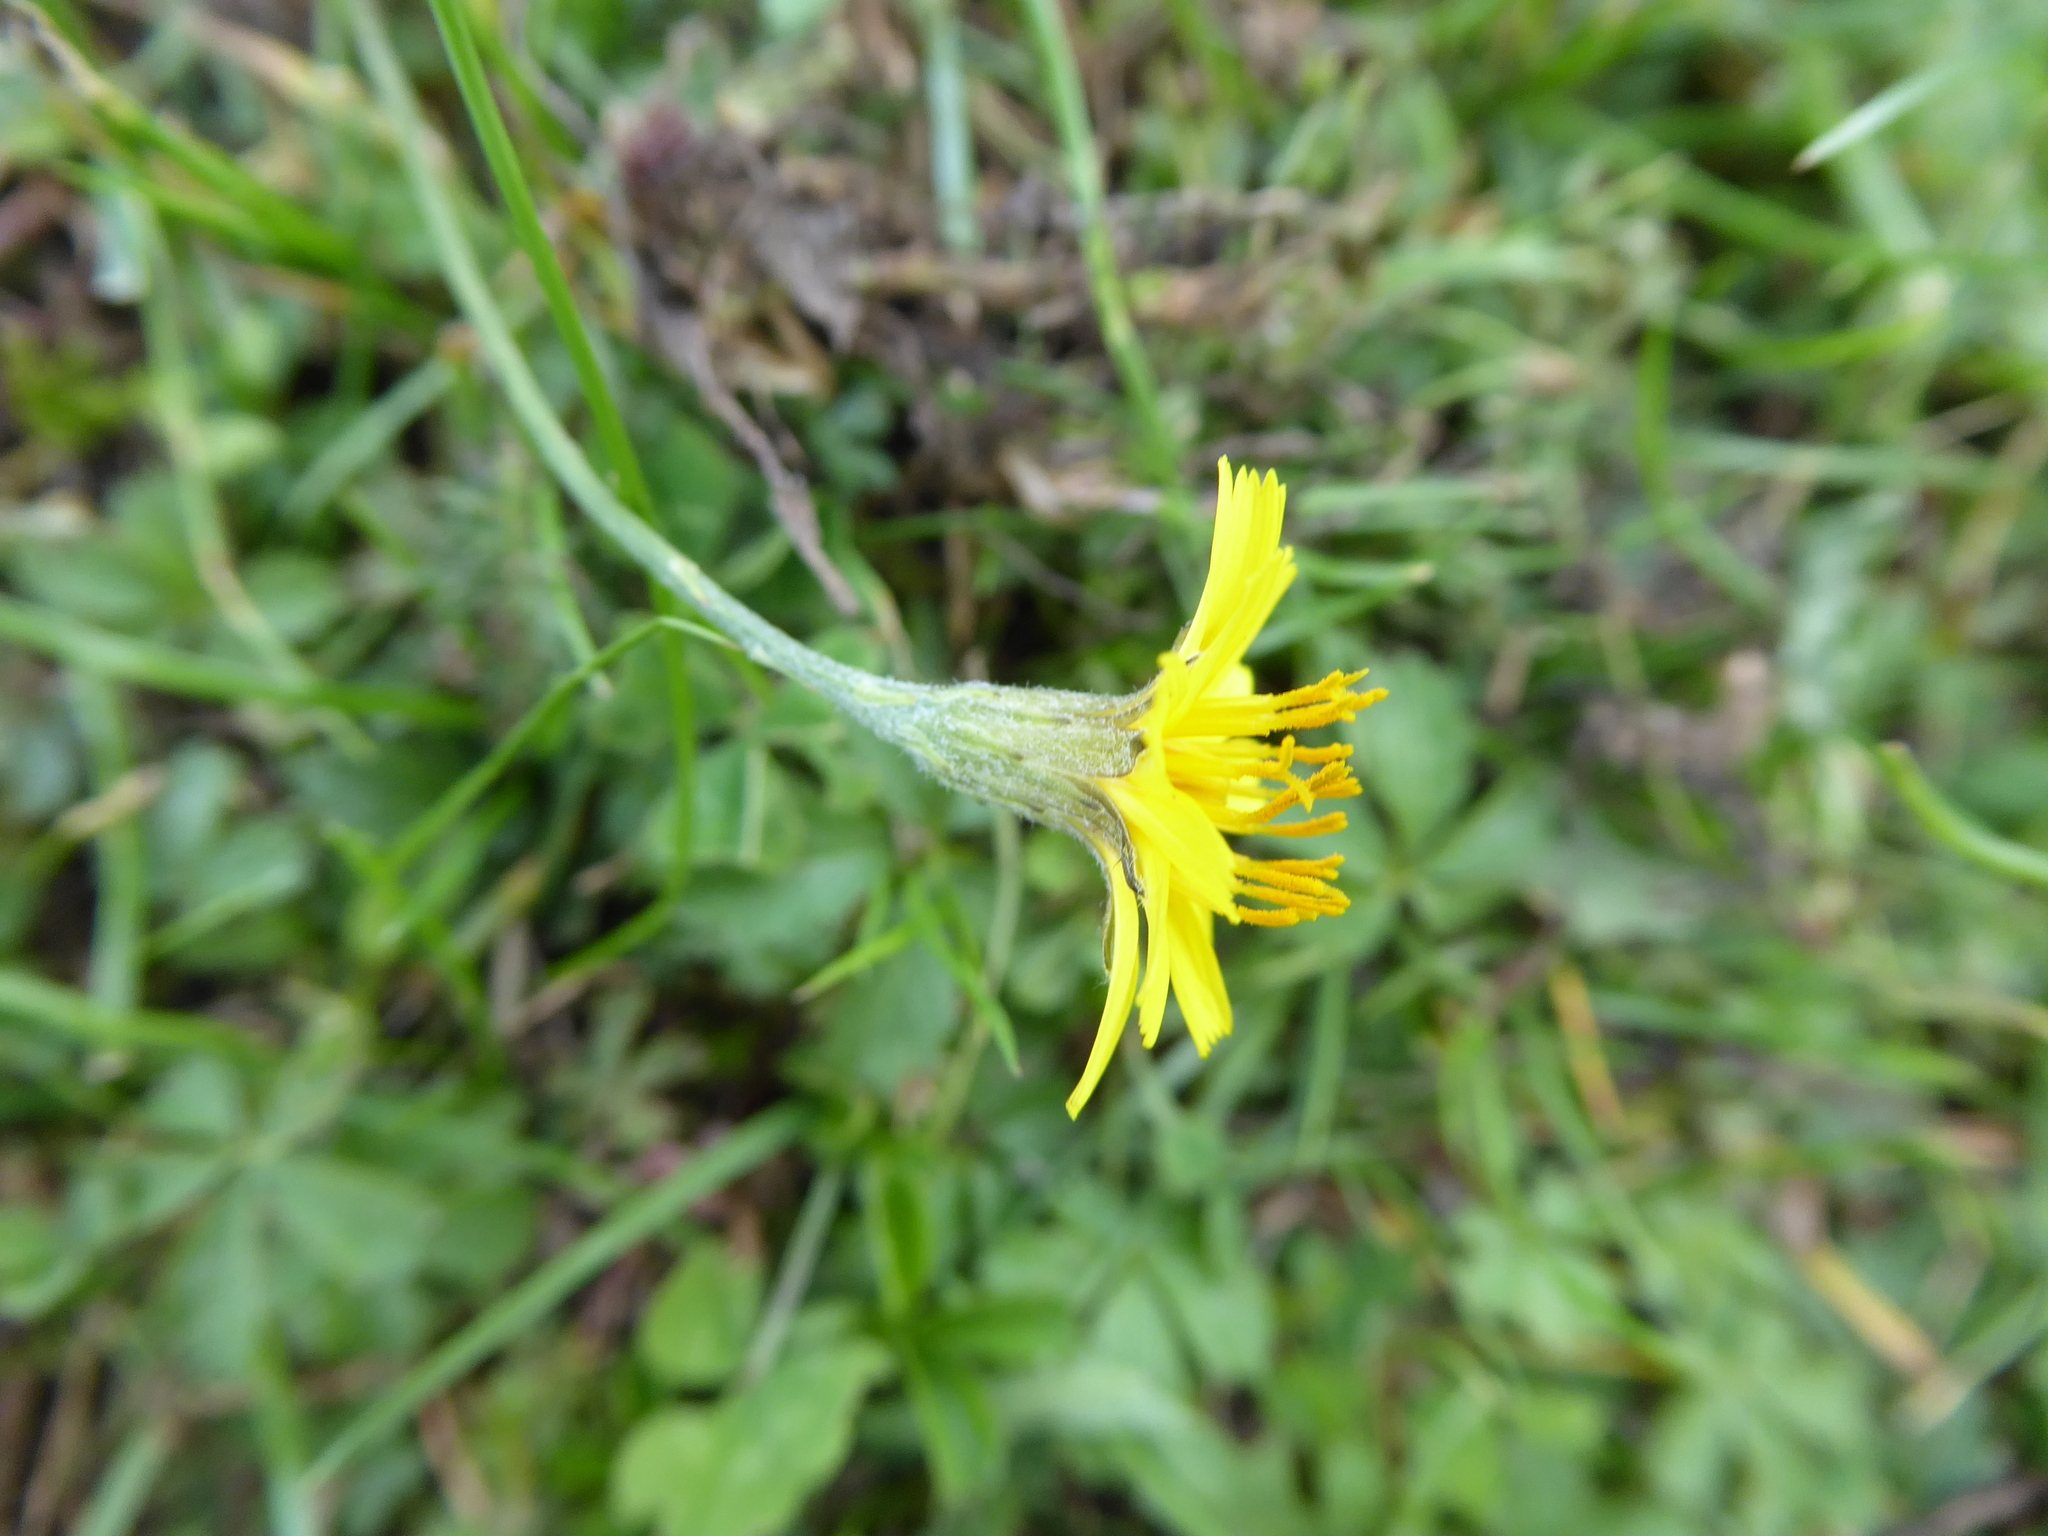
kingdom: Plantae
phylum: Tracheophyta
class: Magnoliopsida
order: Asterales
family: Asteraceae
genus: Scorzoneroides
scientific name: Scorzoneroides autumnalis
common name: Autumn hawkbit
